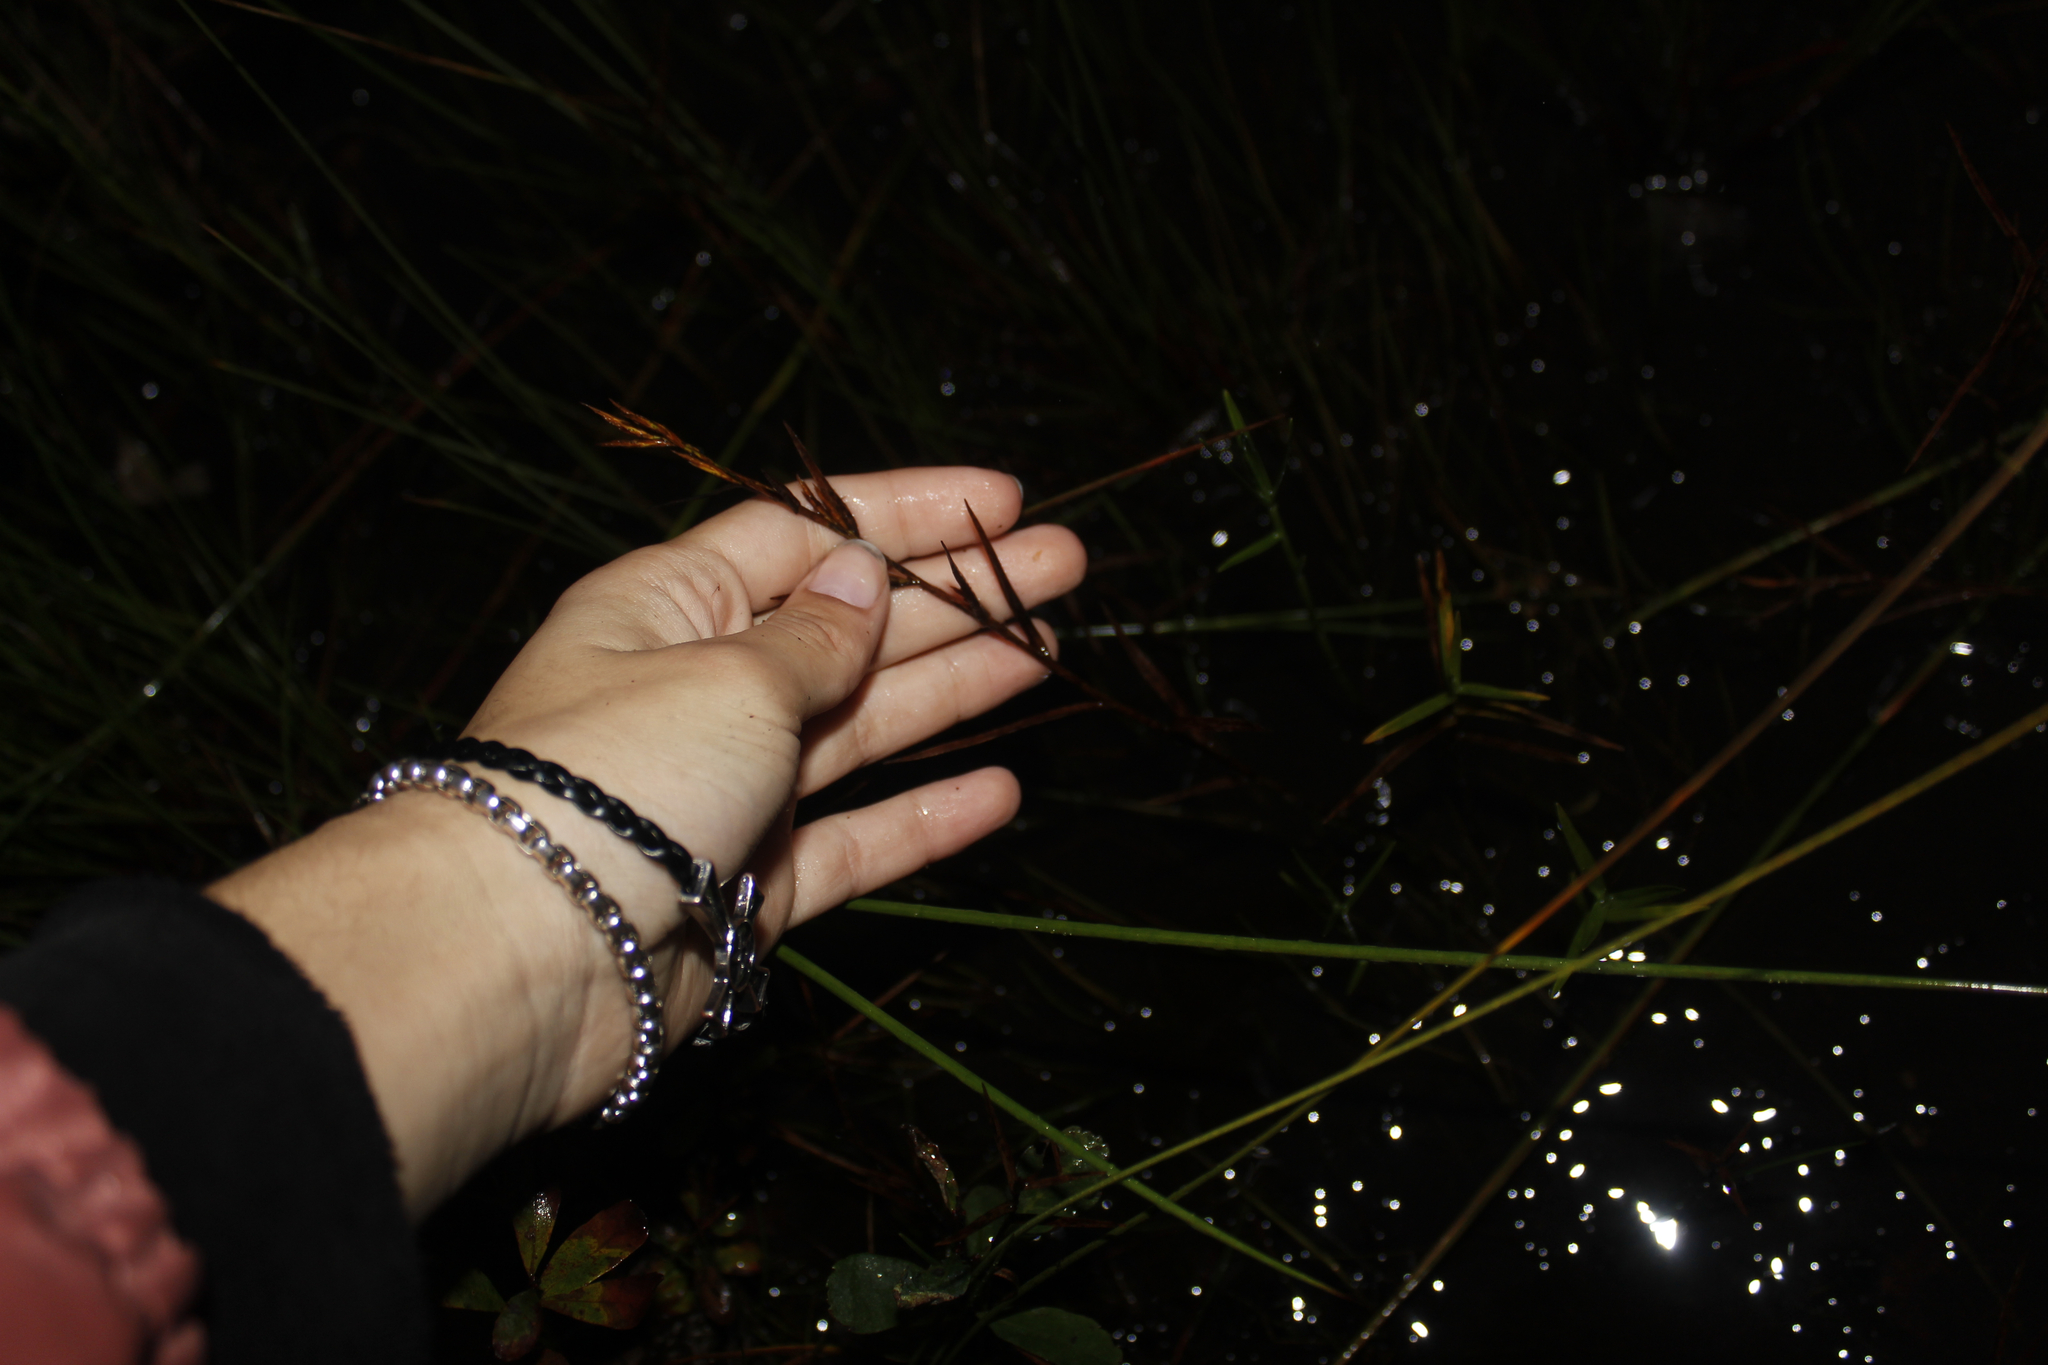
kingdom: Plantae
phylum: Tracheophyta
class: Liliopsida
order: Poales
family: Cyperaceae
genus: Dulichium
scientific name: Dulichium arundinaceum
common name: Three-way sedge
